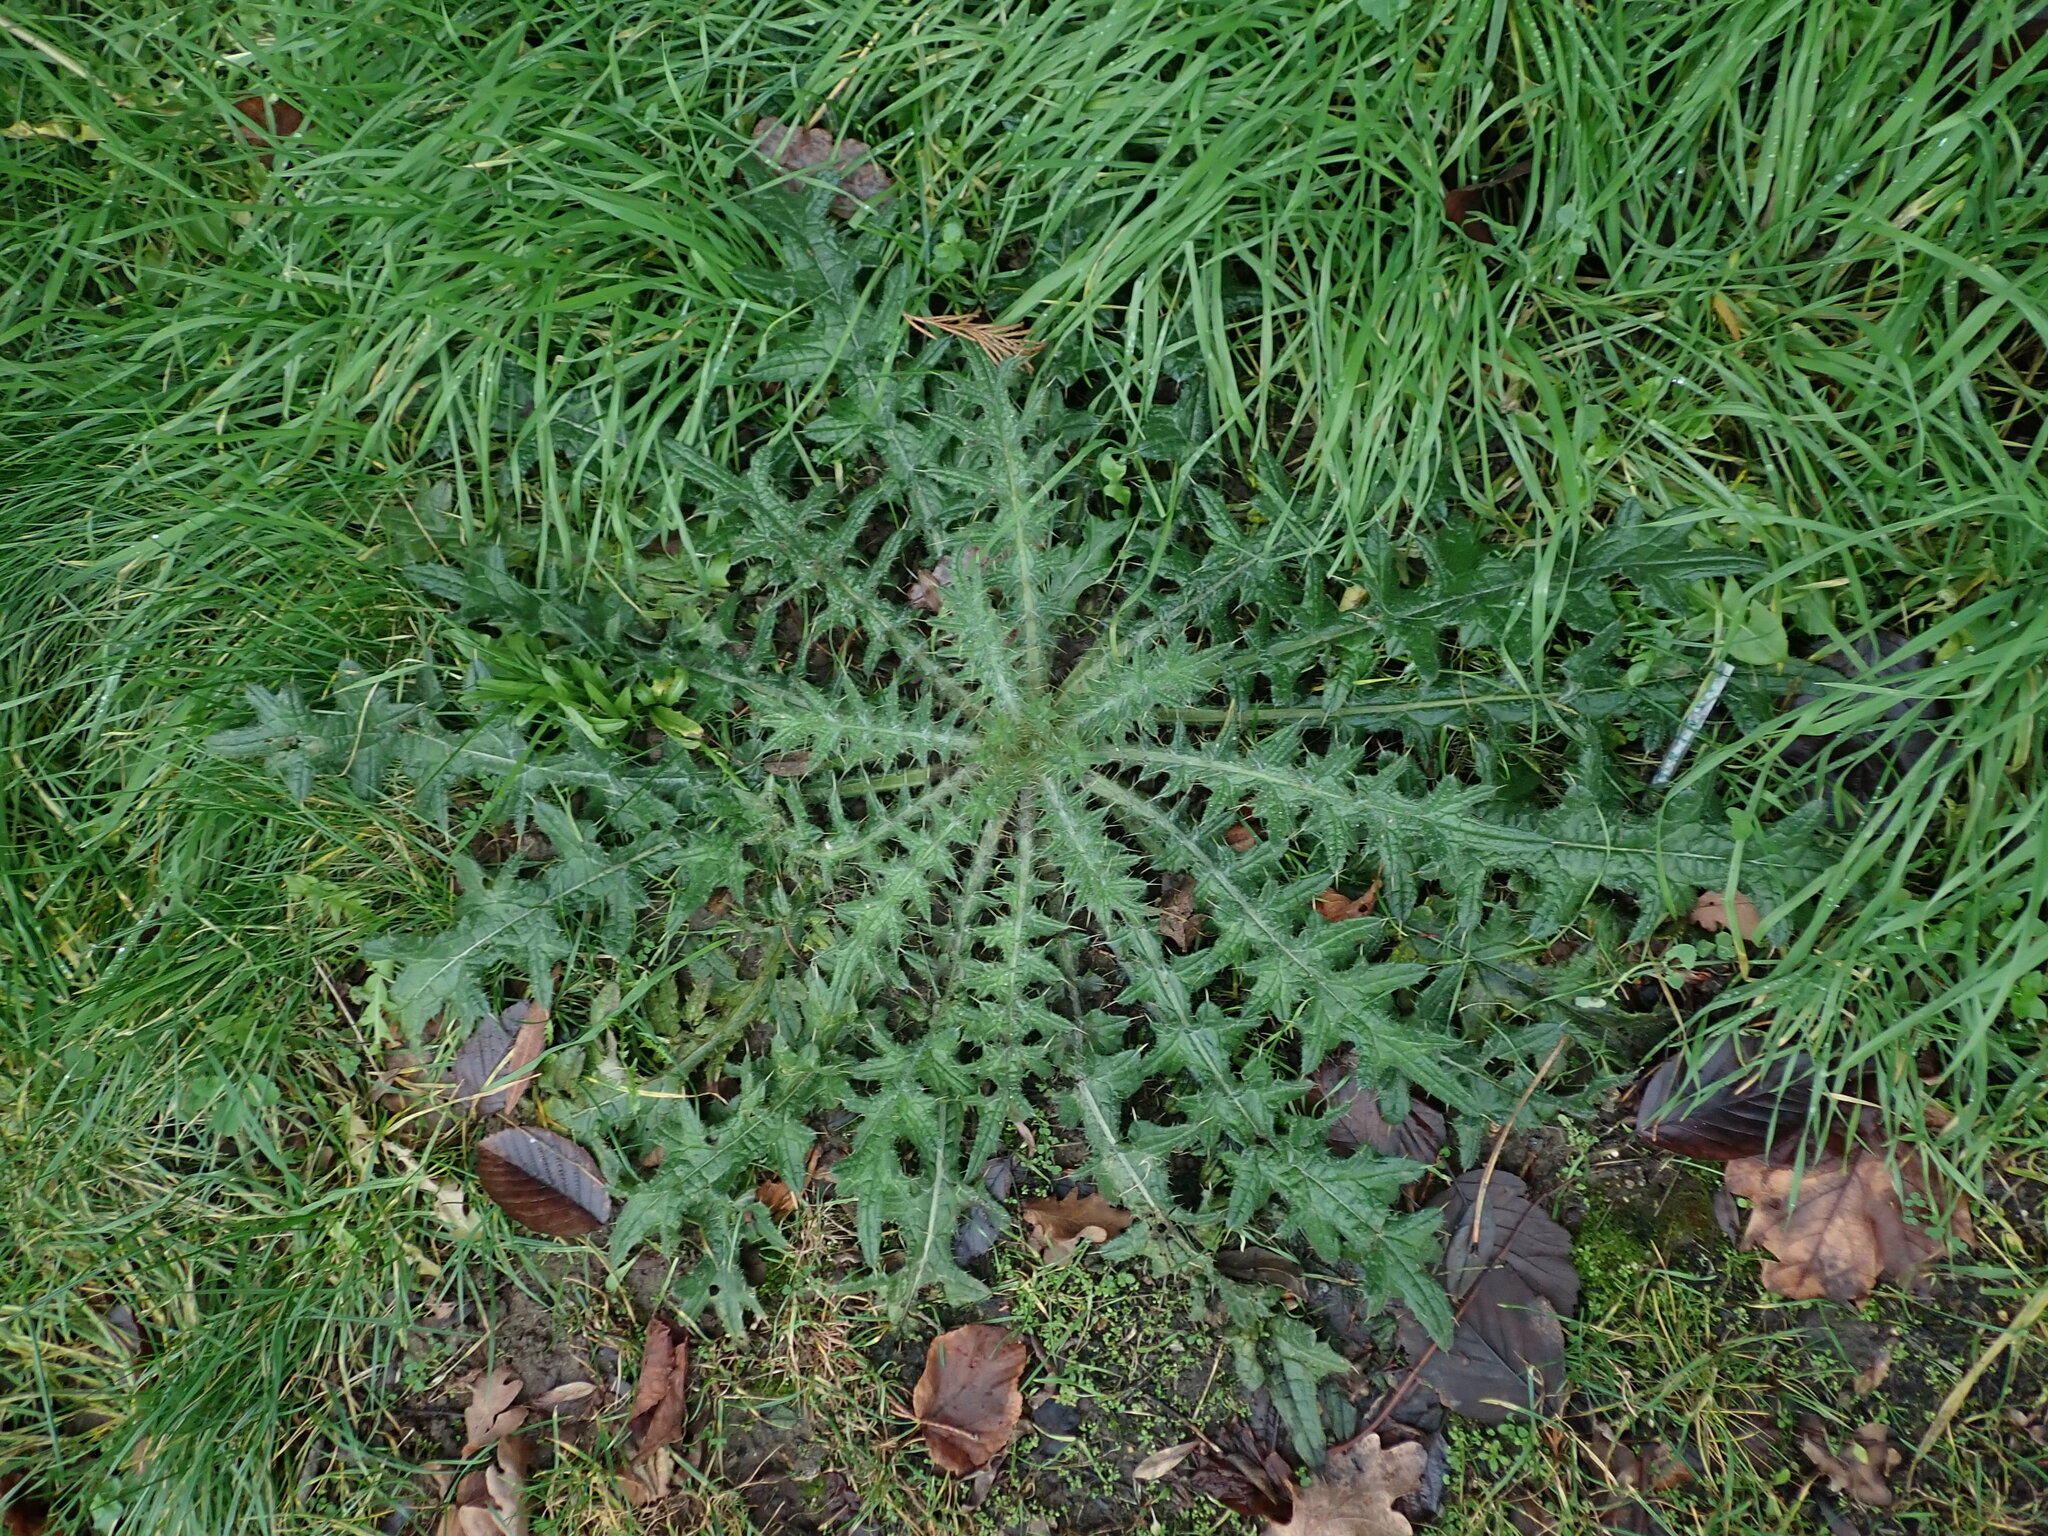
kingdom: Plantae
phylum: Tracheophyta
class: Magnoliopsida
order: Asterales
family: Asteraceae
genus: Cirsium
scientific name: Cirsium vulgare
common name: Bull thistle
